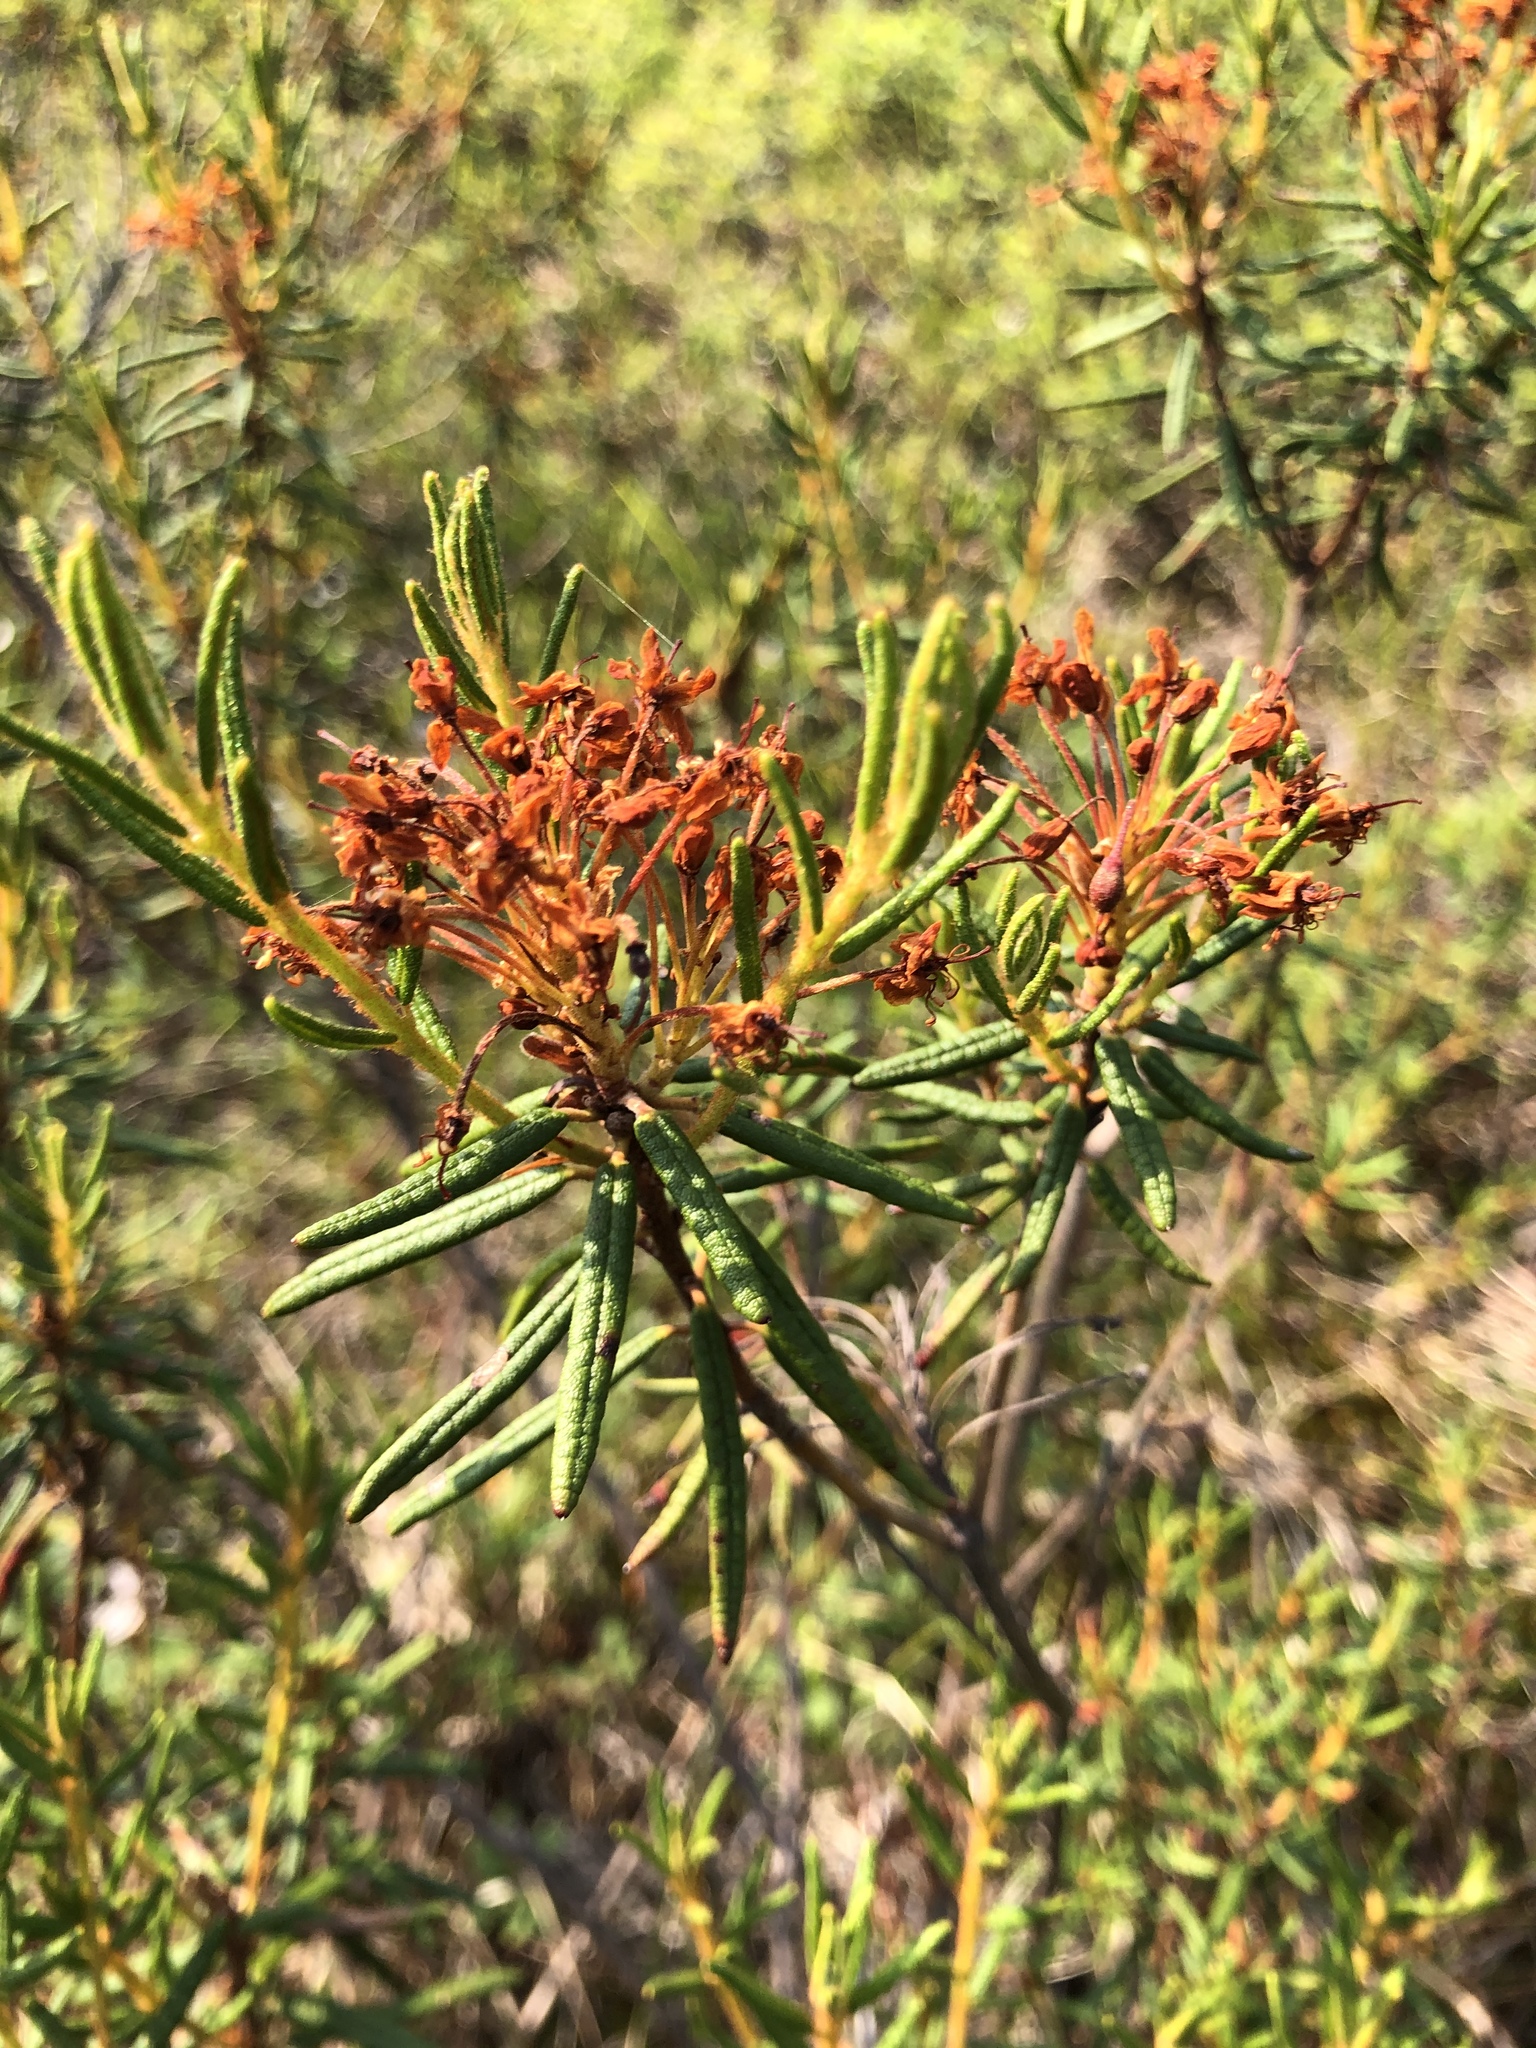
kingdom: Plantae
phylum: Tracheophyta
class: Magnoliopsida
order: Ericales
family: Ericaceae
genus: Rhododendron
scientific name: Rhododendron tomentosum
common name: Marsh labrador tea
